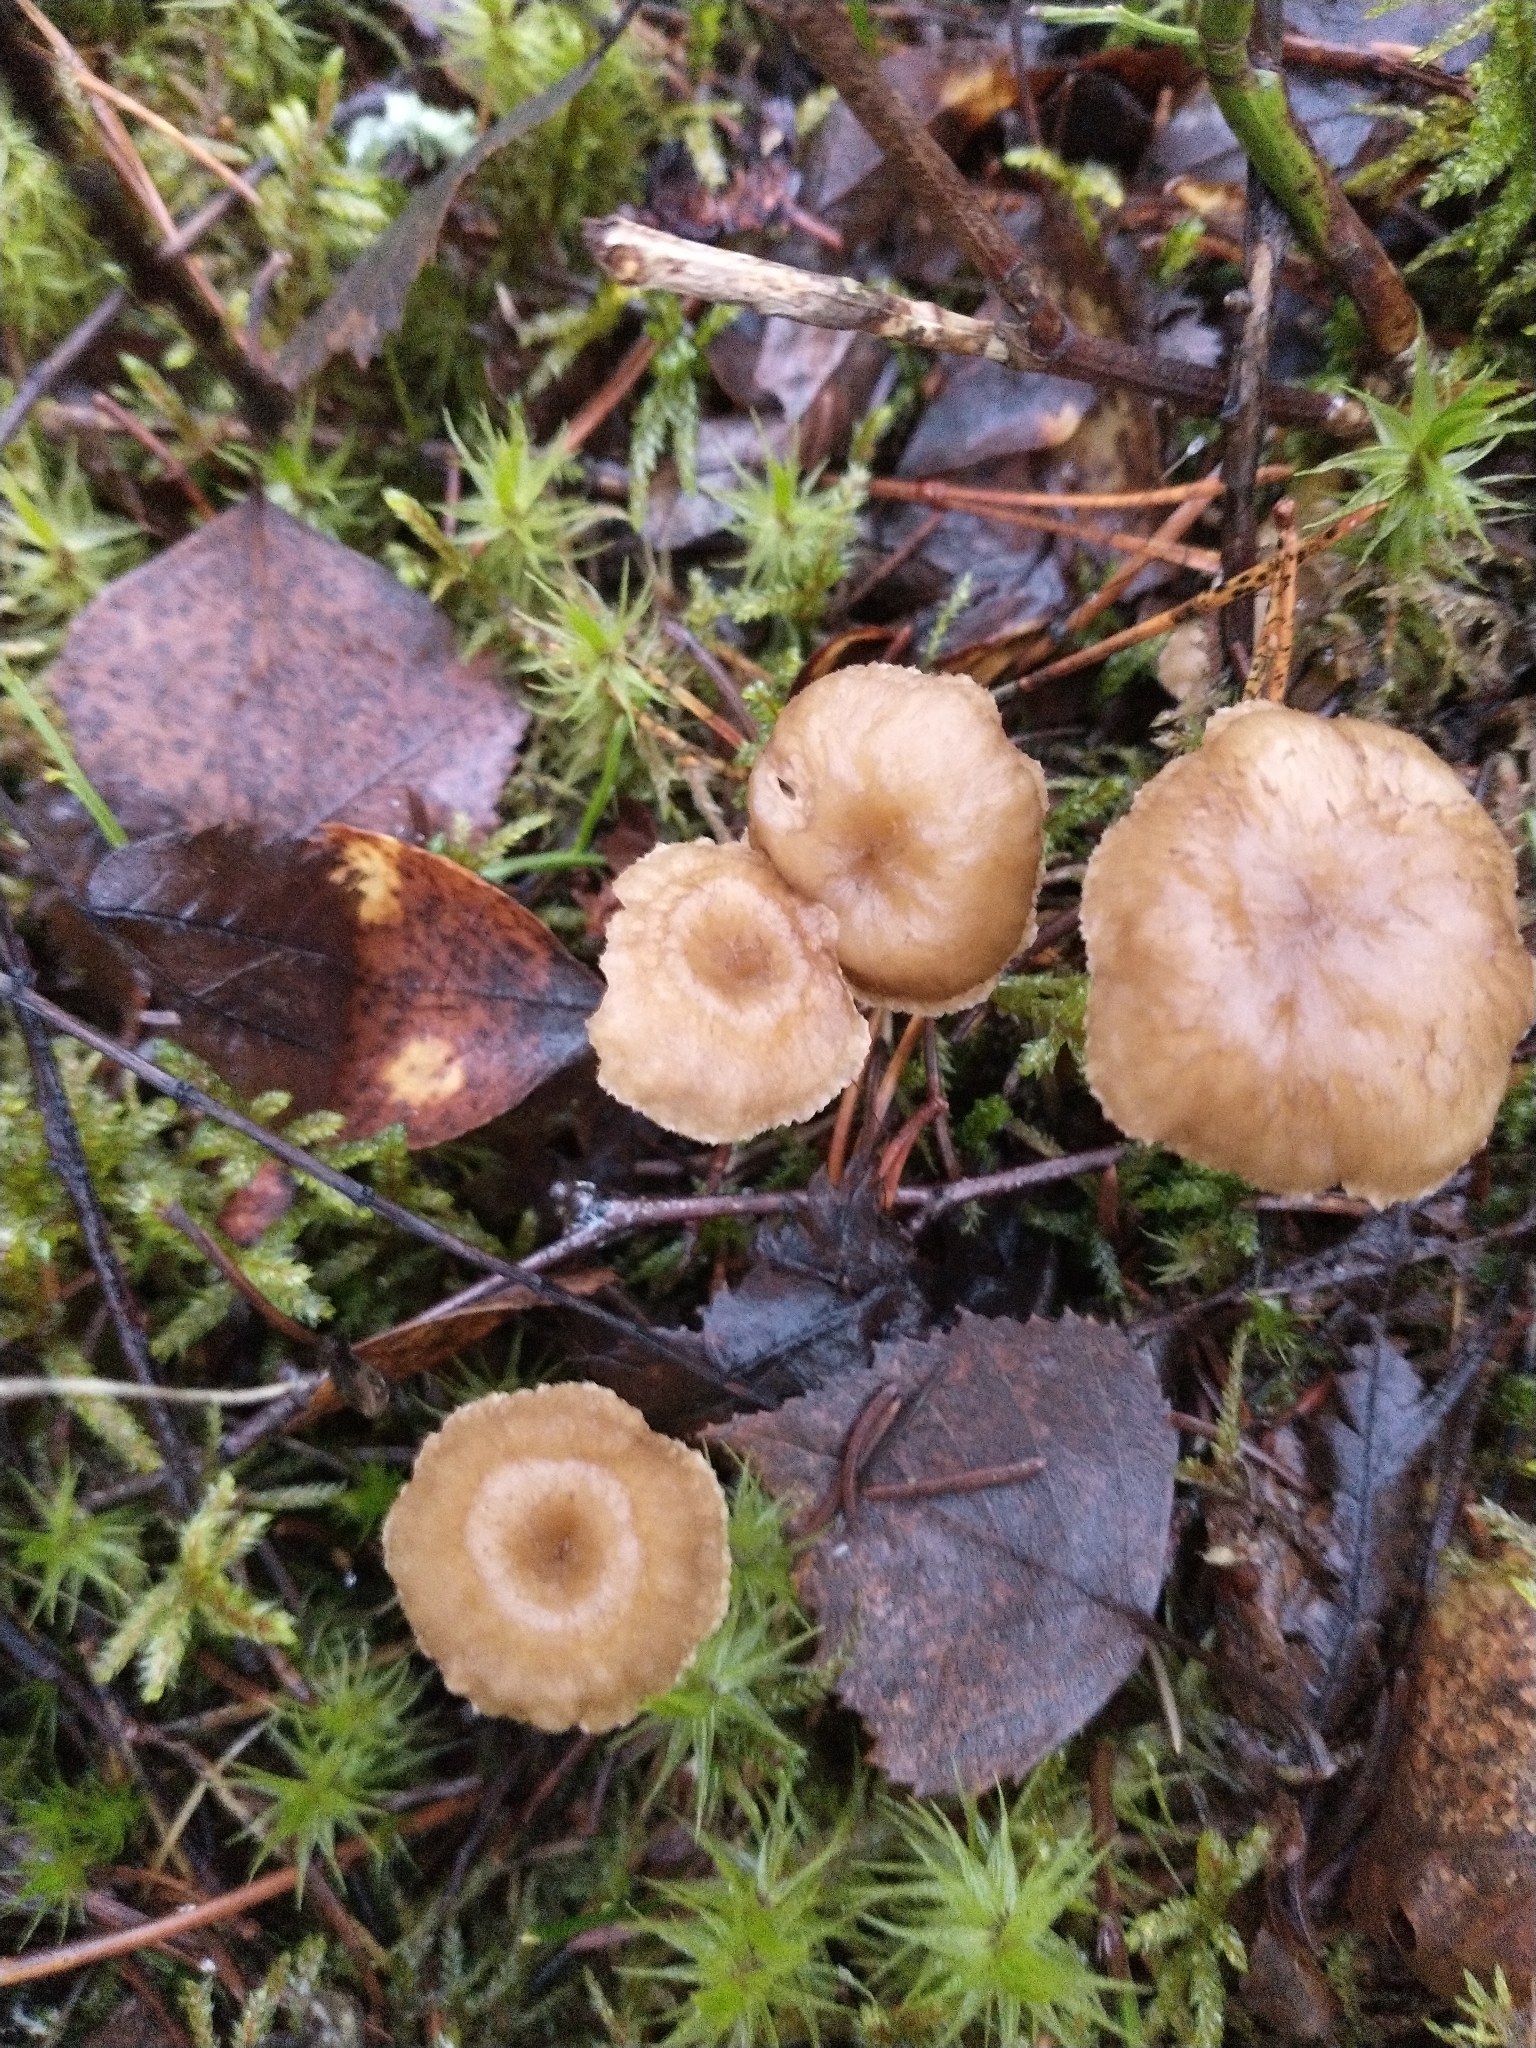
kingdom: Fungi
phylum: Basidiomycota
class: Agaricomycetes
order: Cantharellales
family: Hydnaceae
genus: Craterellus
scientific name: Craterellus tubaeformis
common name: Yellowfoot
